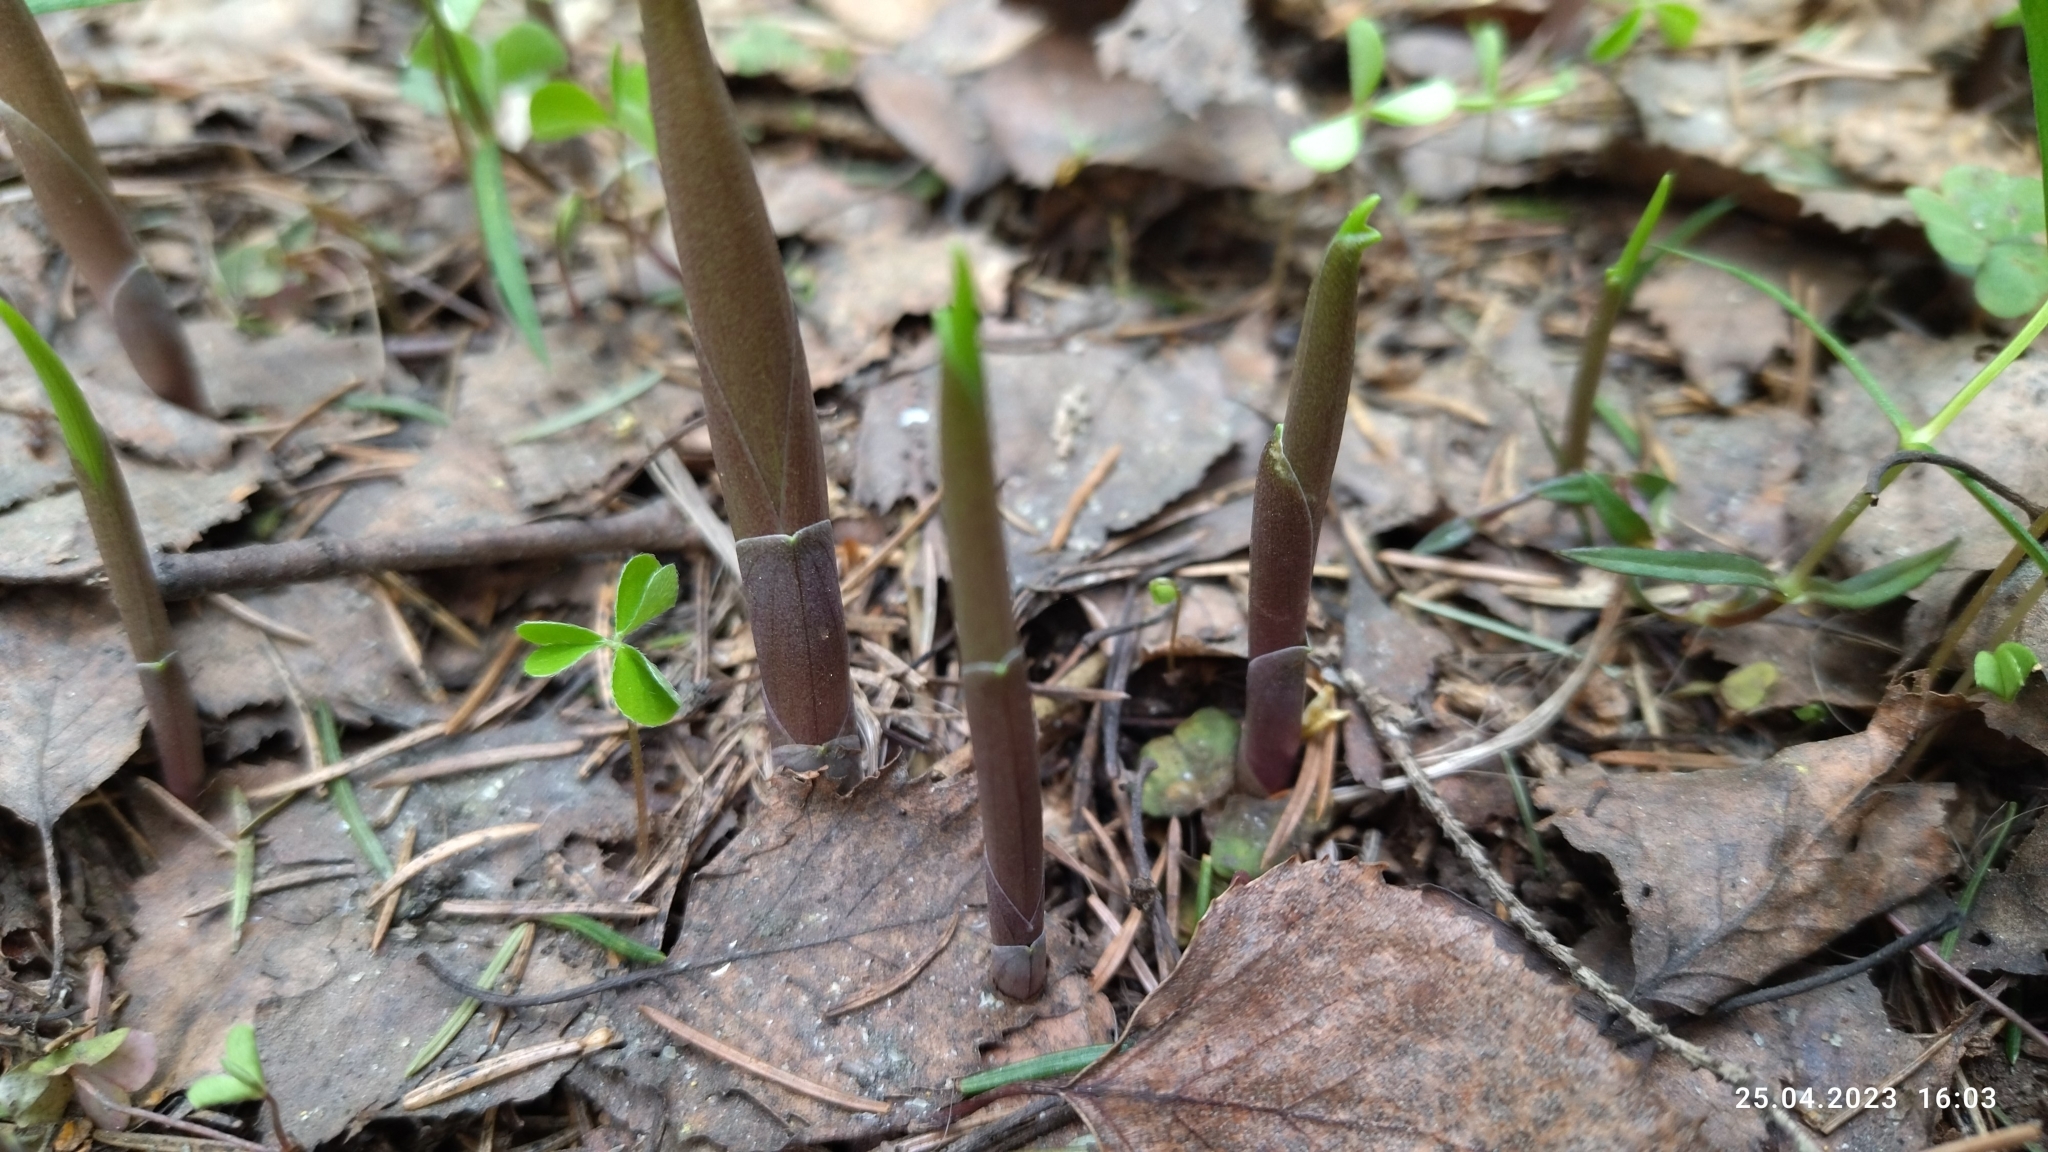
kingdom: Plantae
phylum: Tracheophyta
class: Liliopsida
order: Asparagales
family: Asparagaceae
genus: Convallaria
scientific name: Convallaria majalis
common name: Lily-of-the-valley
